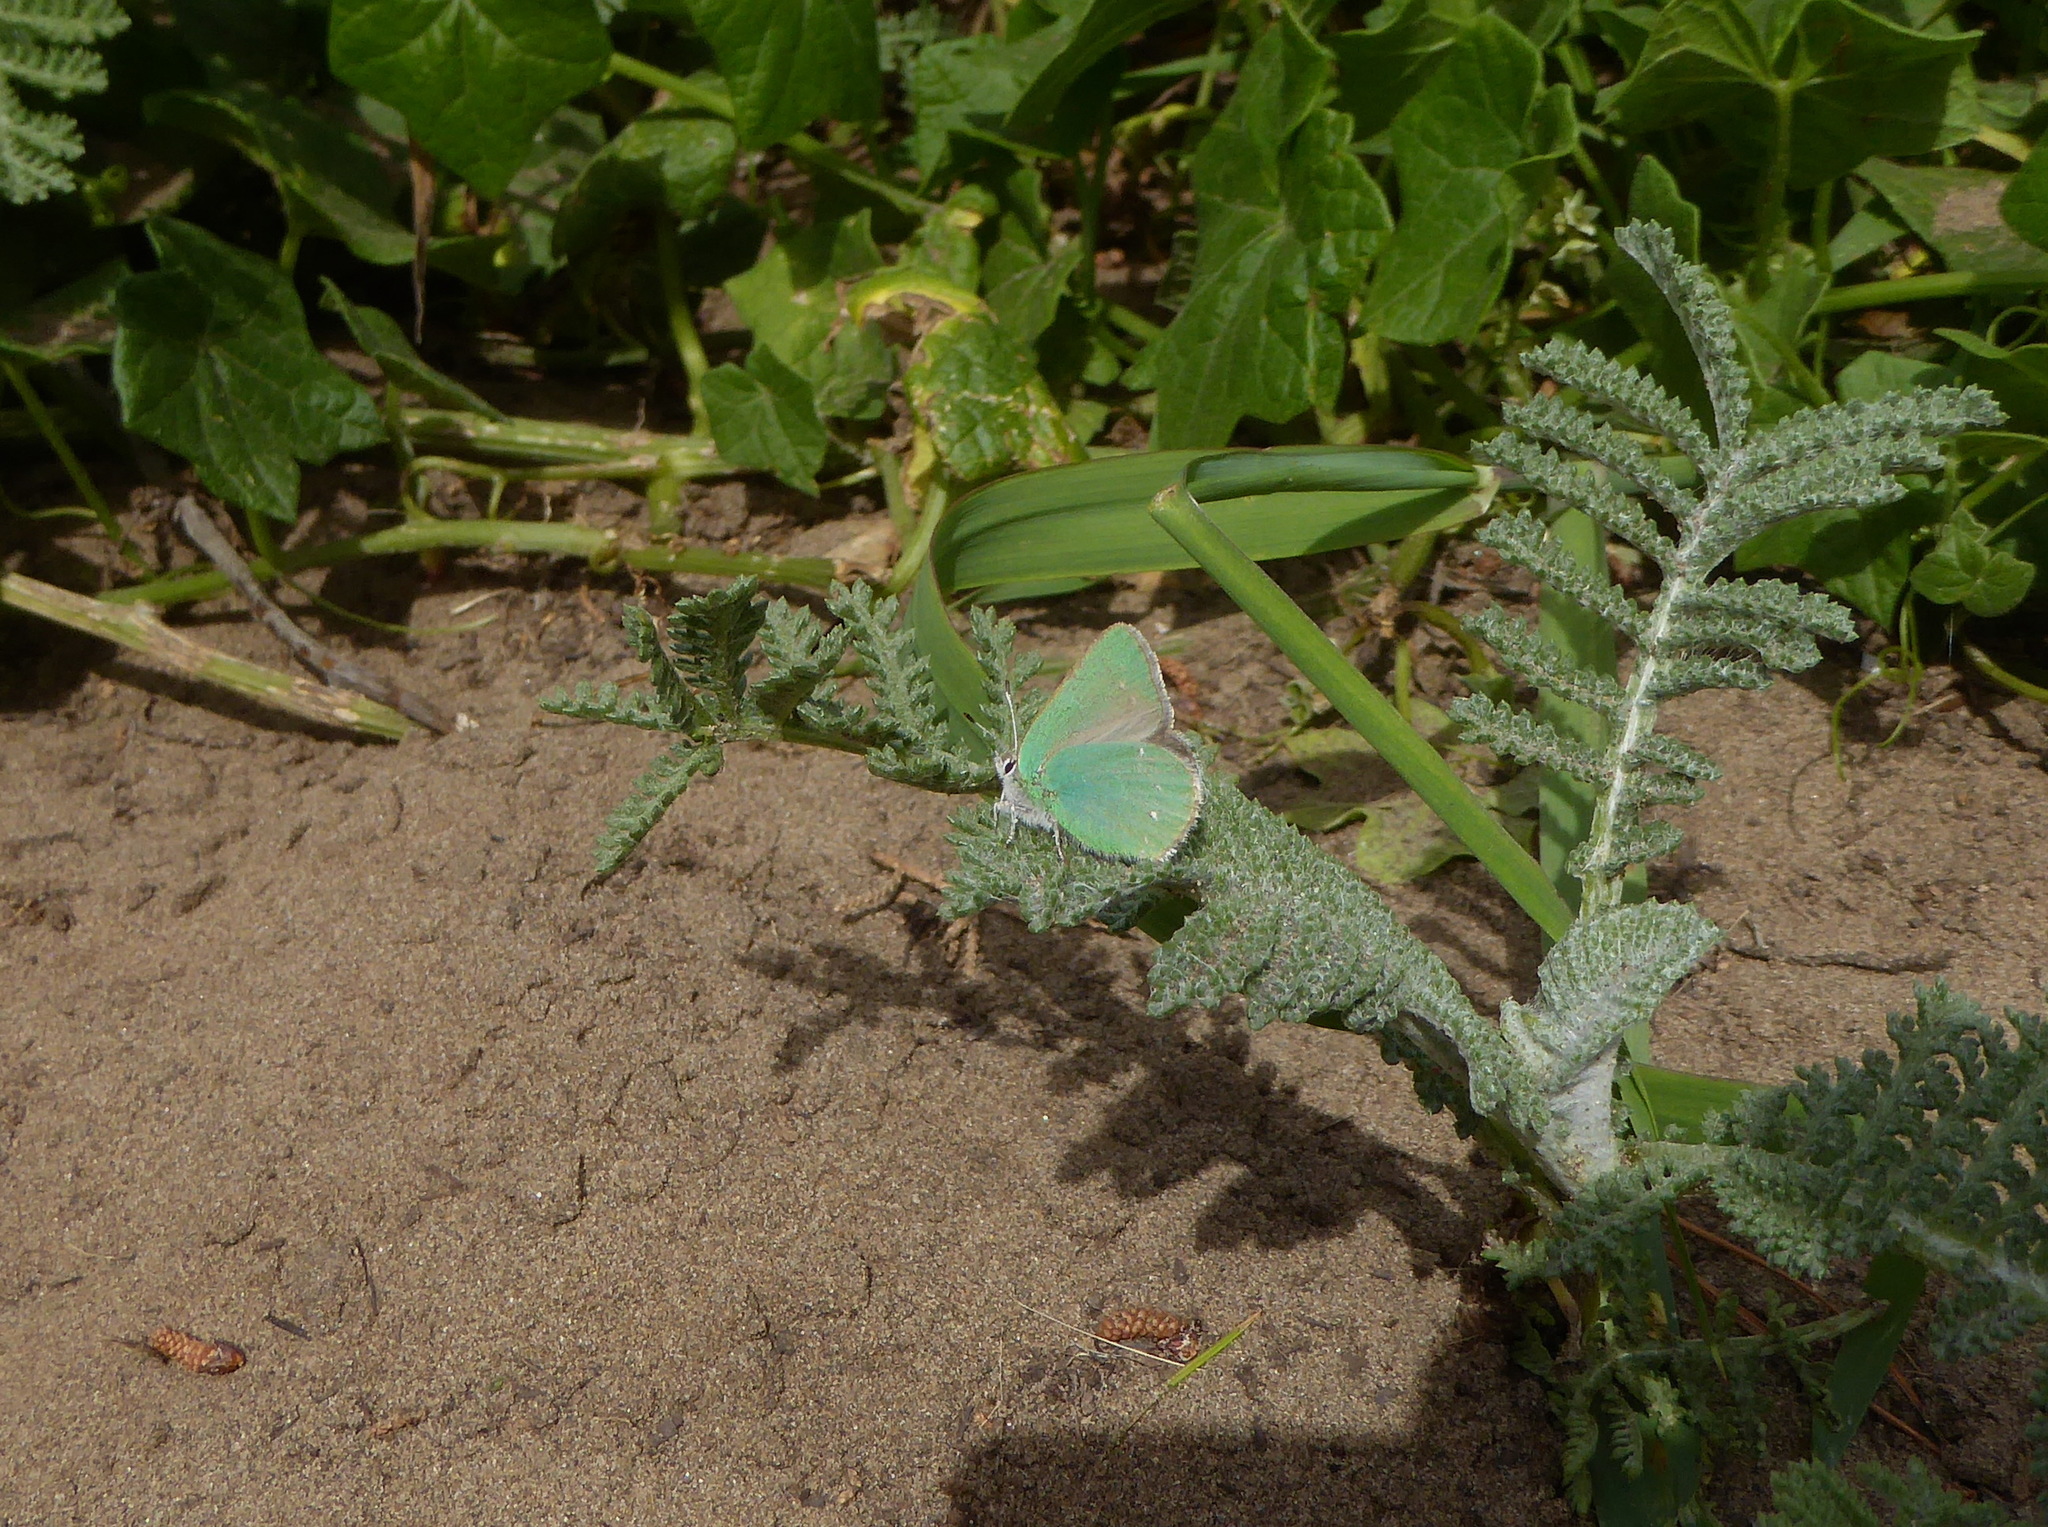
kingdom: Animalia
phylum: Arthropoda
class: Insecta
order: Lepidoptera
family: Lycaenidae
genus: Callophrys
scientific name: Callophrys viridis
